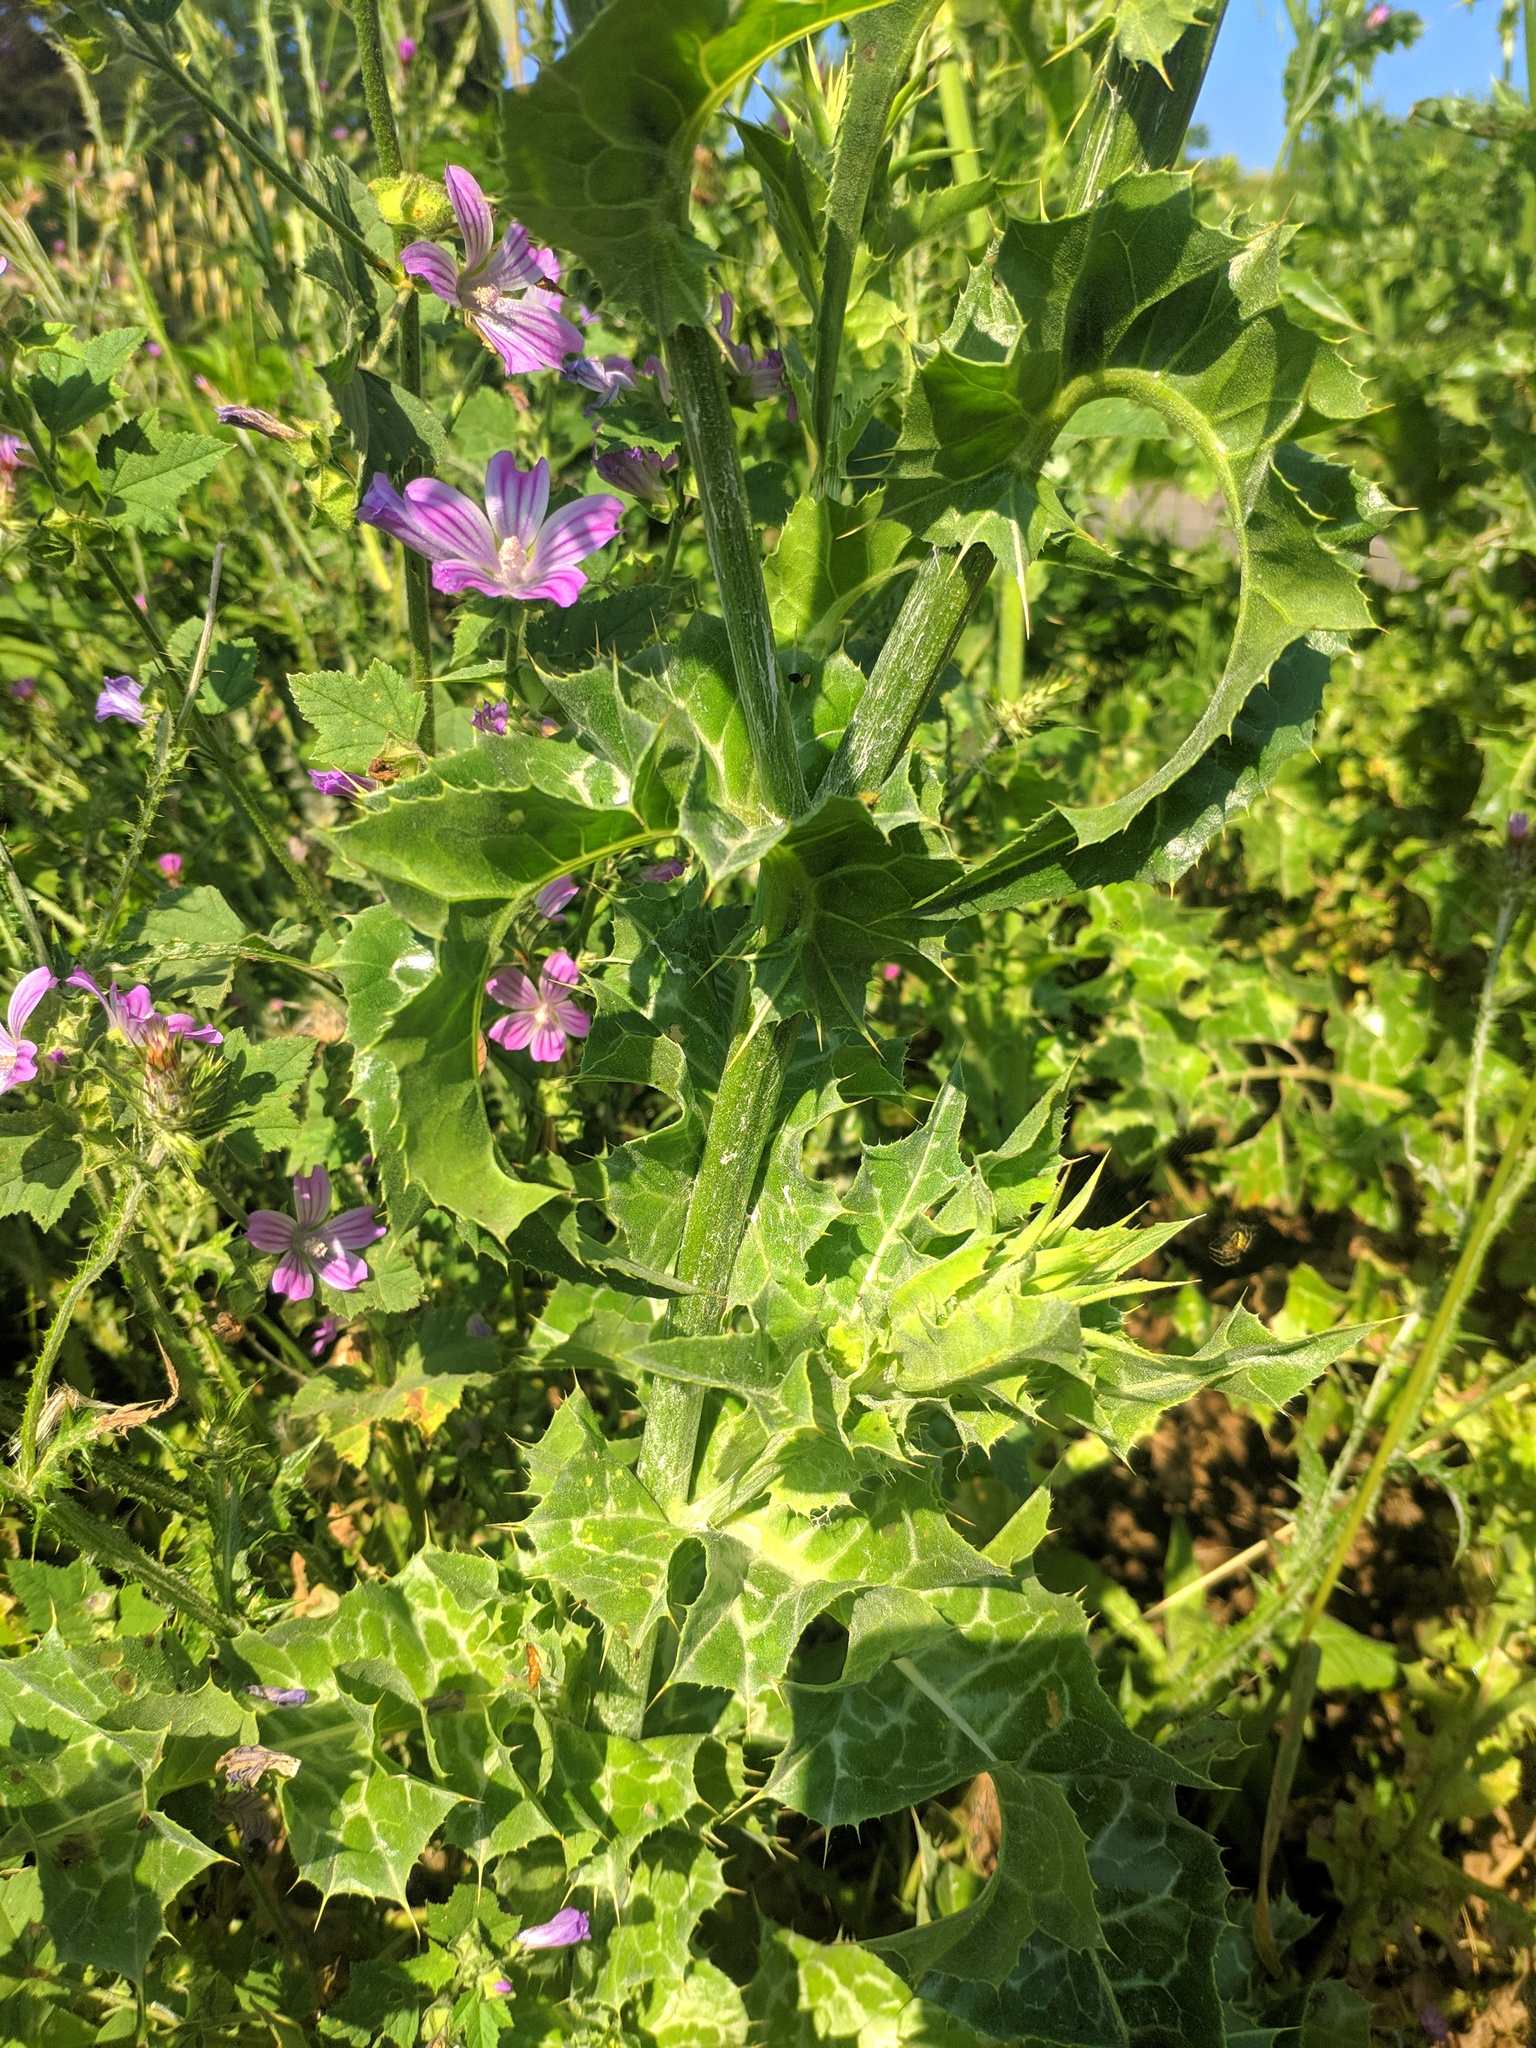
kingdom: Plantae
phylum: Tracheophyta
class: Magnoliopsida
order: Asterales
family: Asteraceae
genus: Silybum
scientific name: Silybum marianum
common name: Milk thistle
